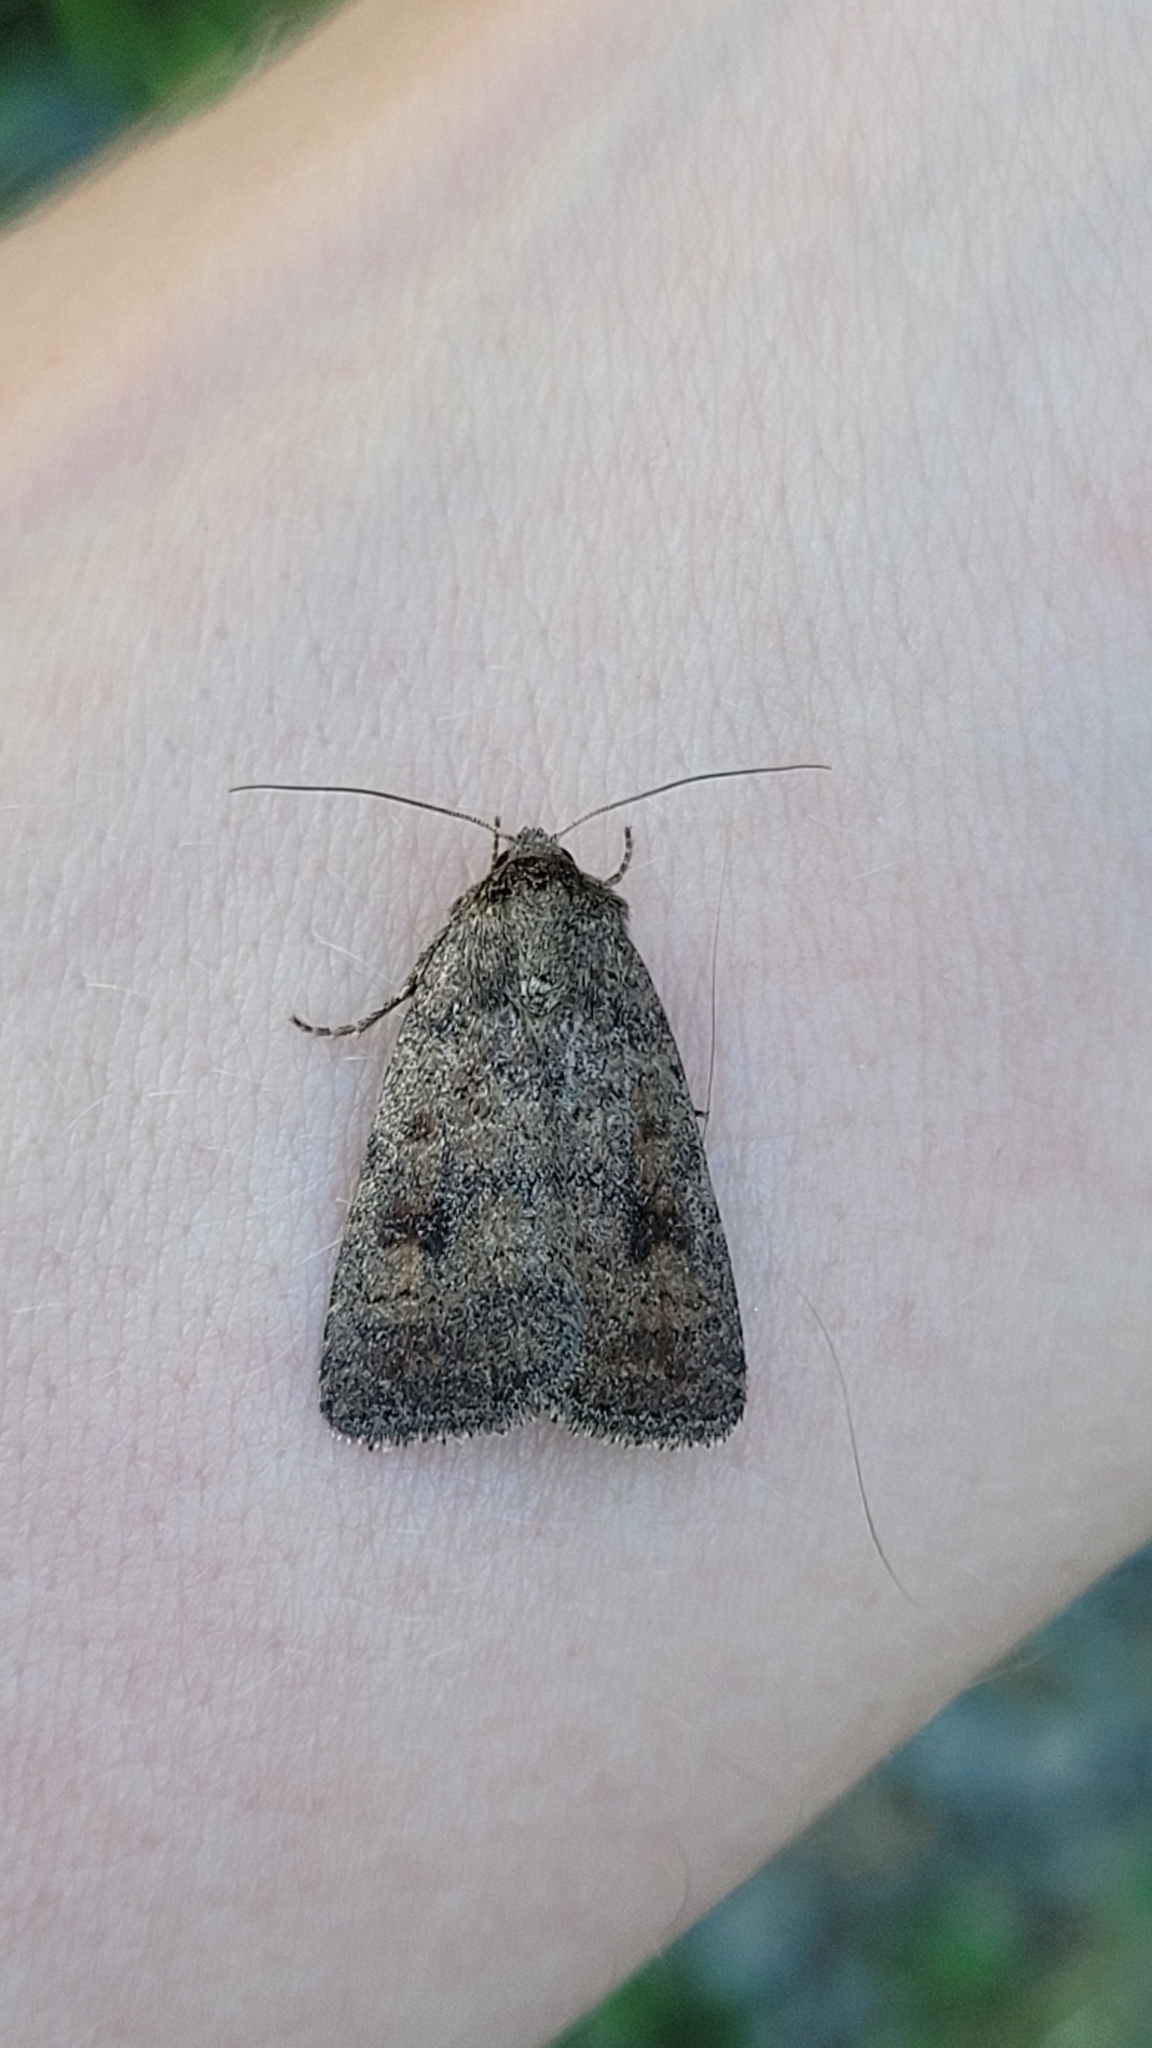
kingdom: Animalia
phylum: Arthropoda
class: Insecta
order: Lepidoptera
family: Noctuidae
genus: Caradrina
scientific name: Caradrina morpheus
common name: Mottled rustic
